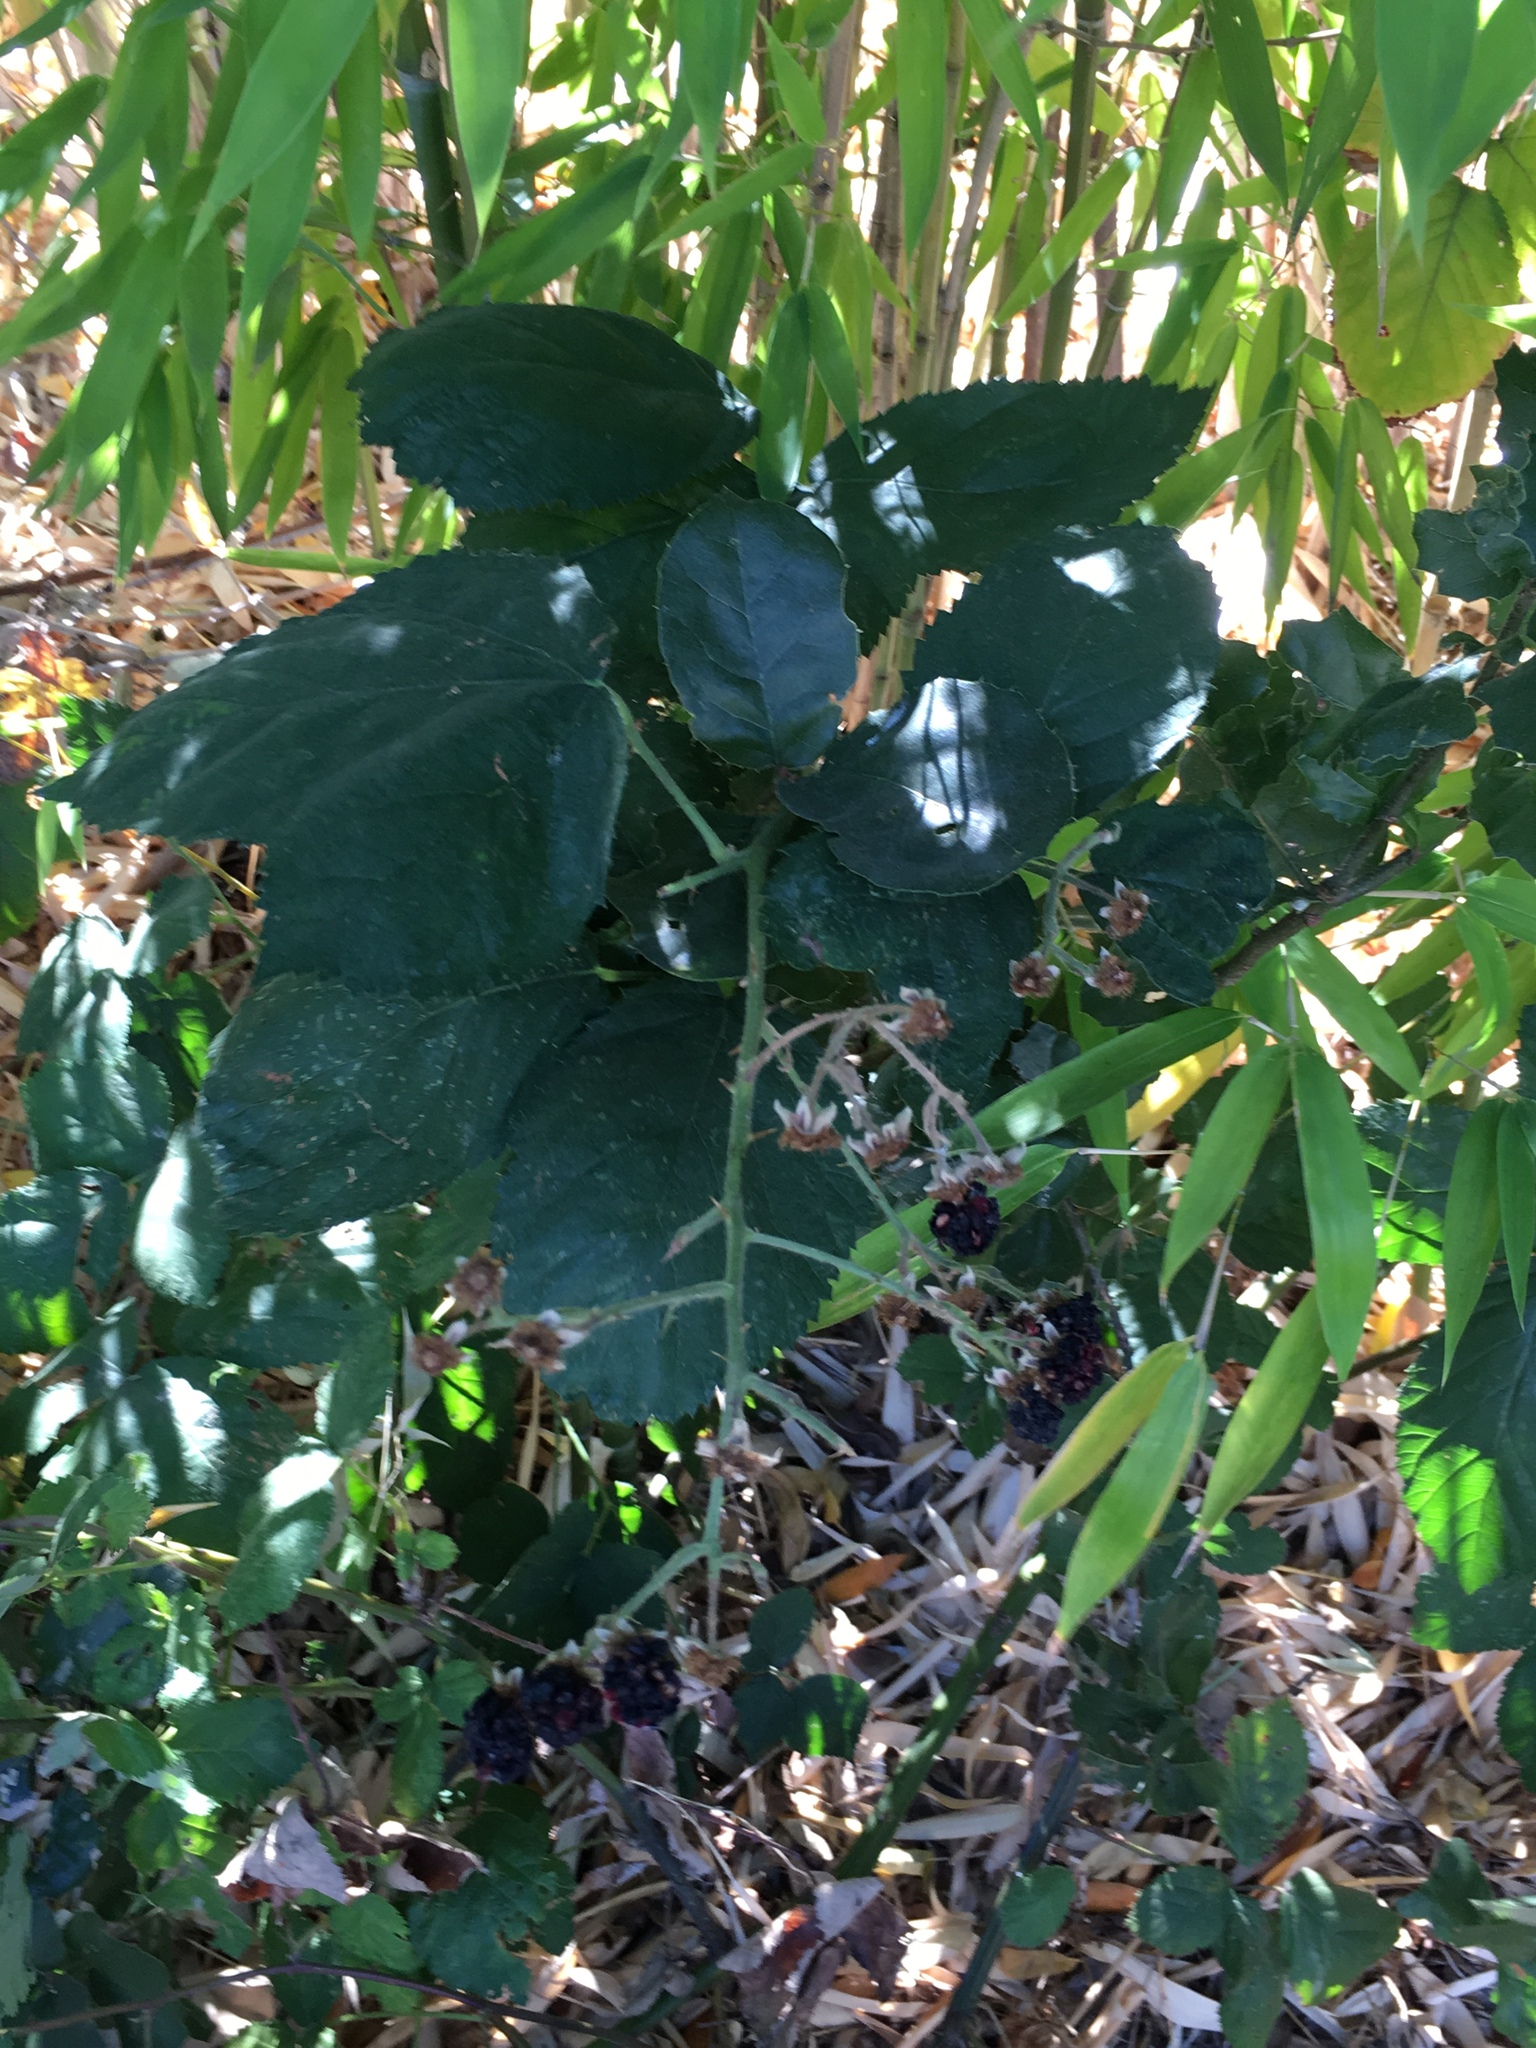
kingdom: Plantae
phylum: Tracheophyta
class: Magnoliopsida
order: Rosales
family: Rosaceae
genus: Rubus
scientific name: Rubus armeniacus
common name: Himalayan blackberry
